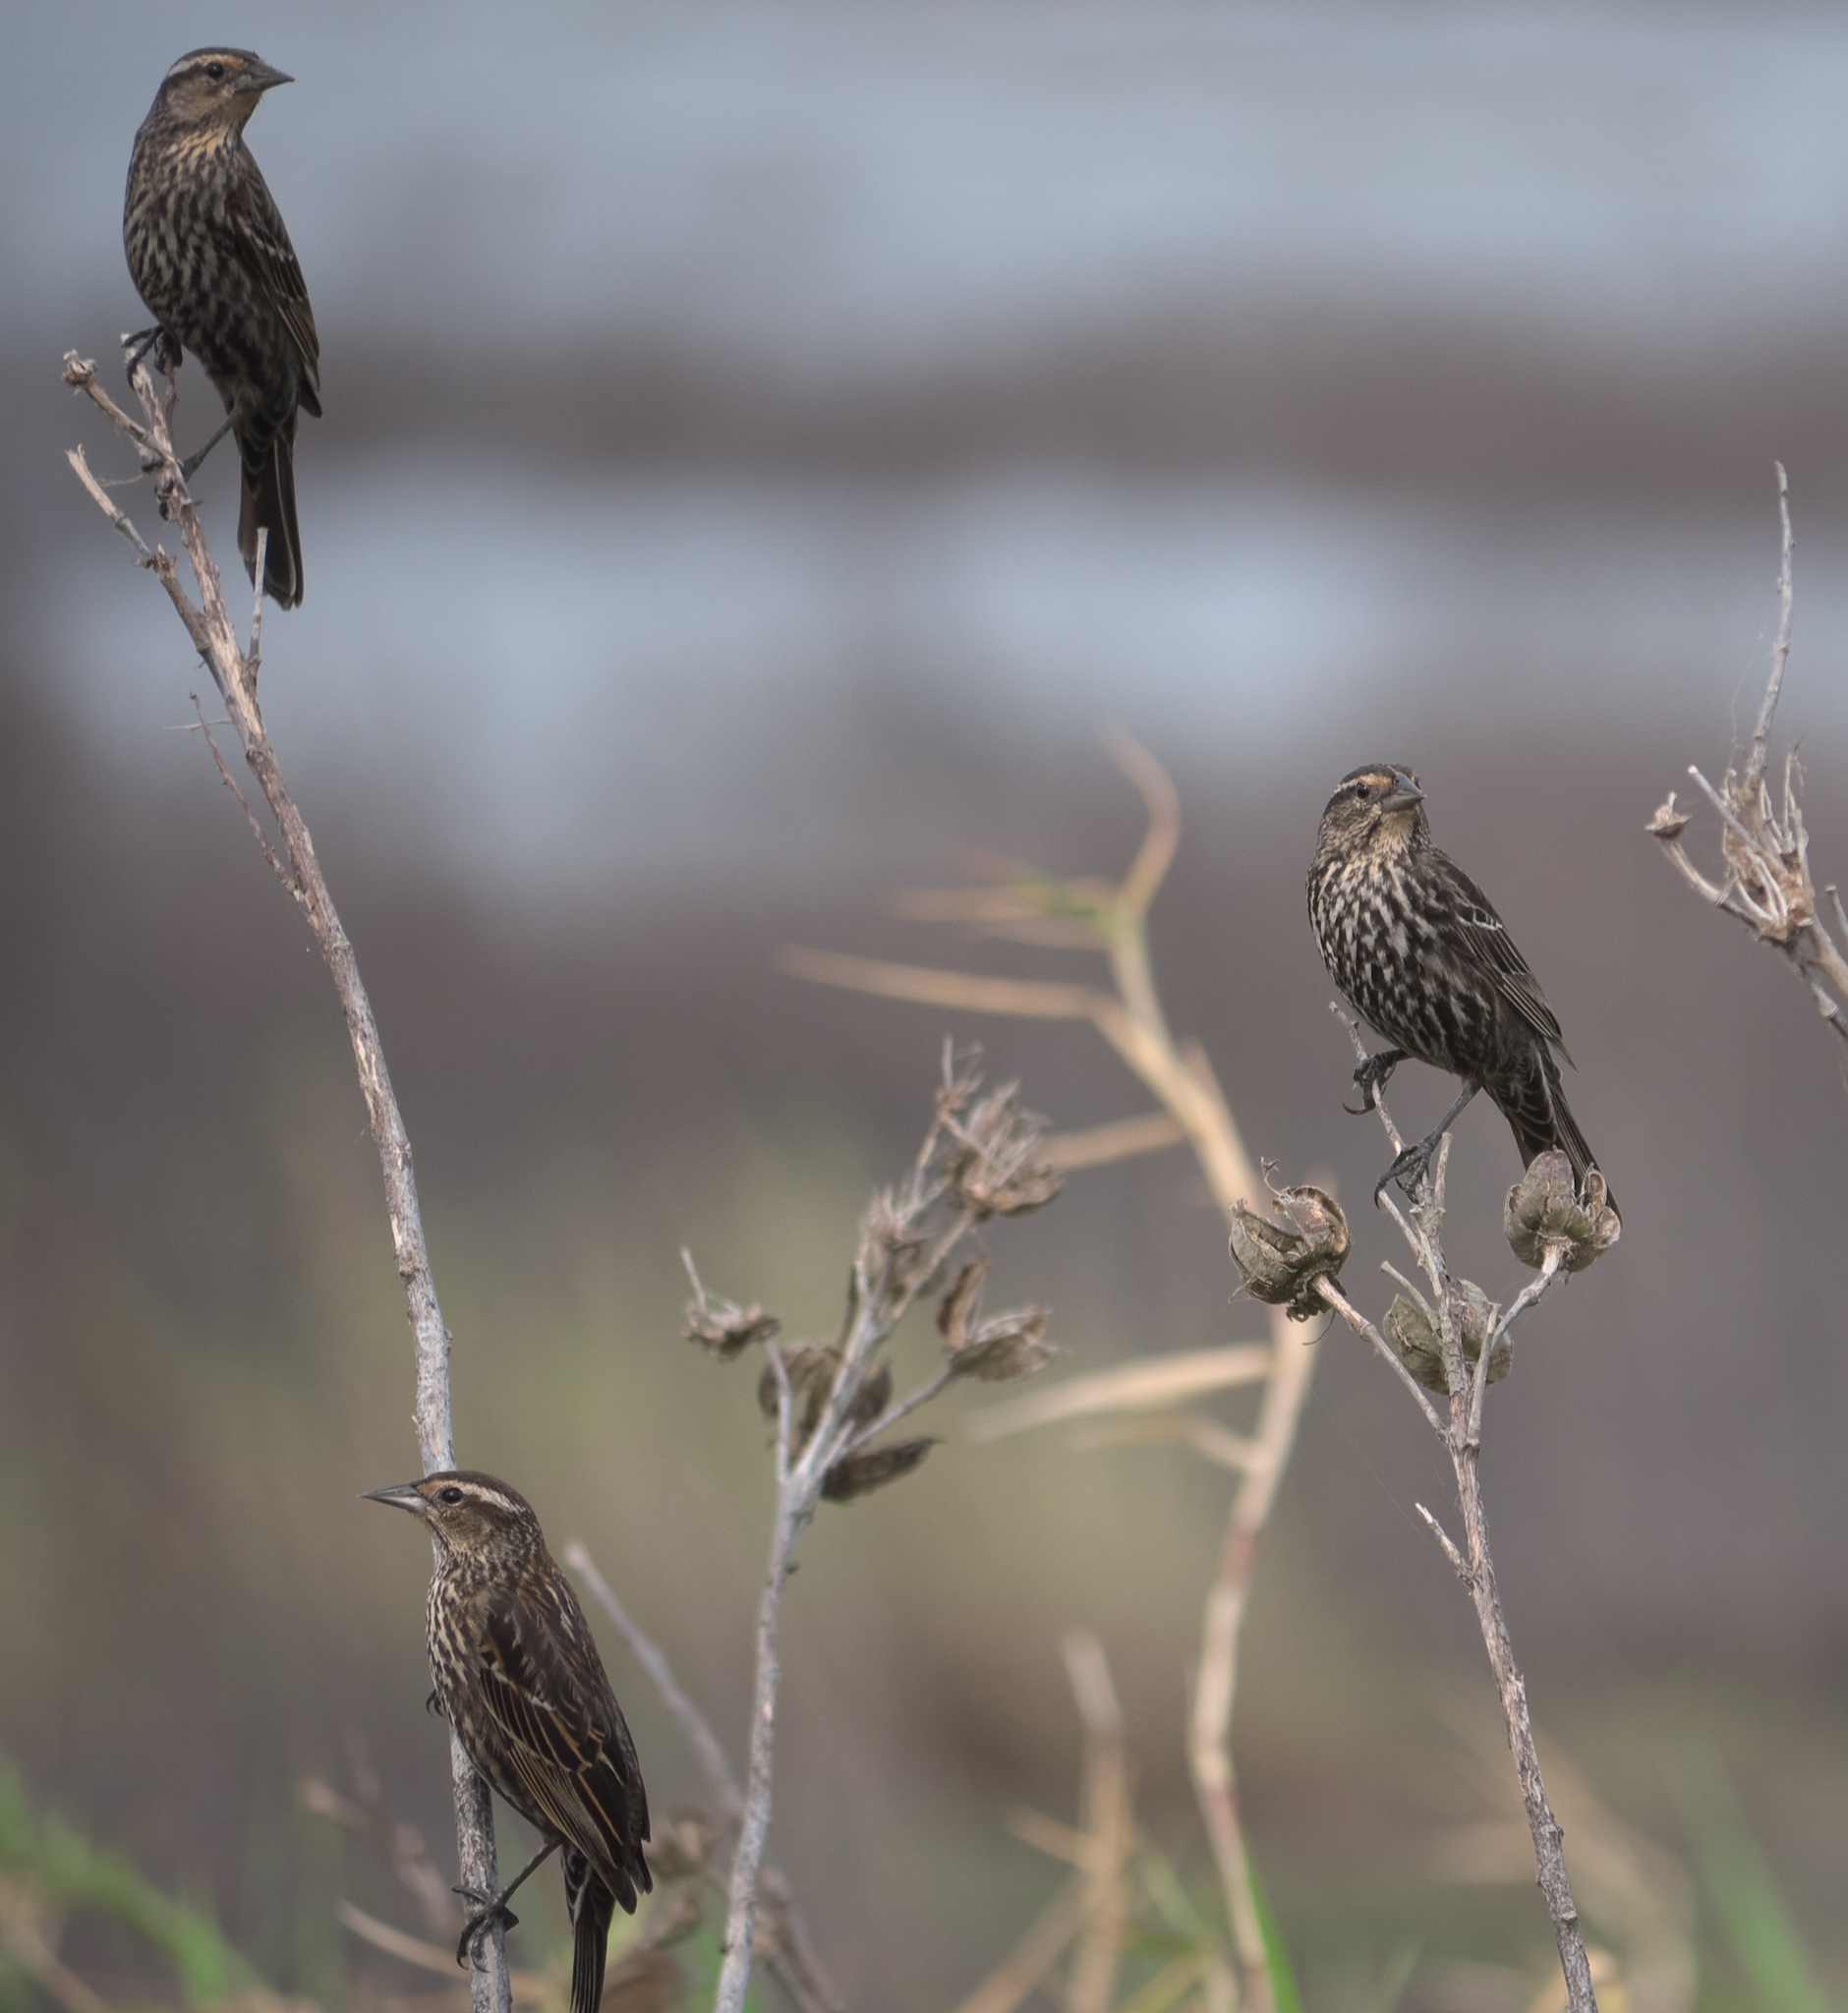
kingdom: Animalia
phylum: Chordata
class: Aves
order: Passeriformes
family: Icteridae
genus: Agelaius
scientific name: Agelaius phoeniceus
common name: Red-winged blackbird
